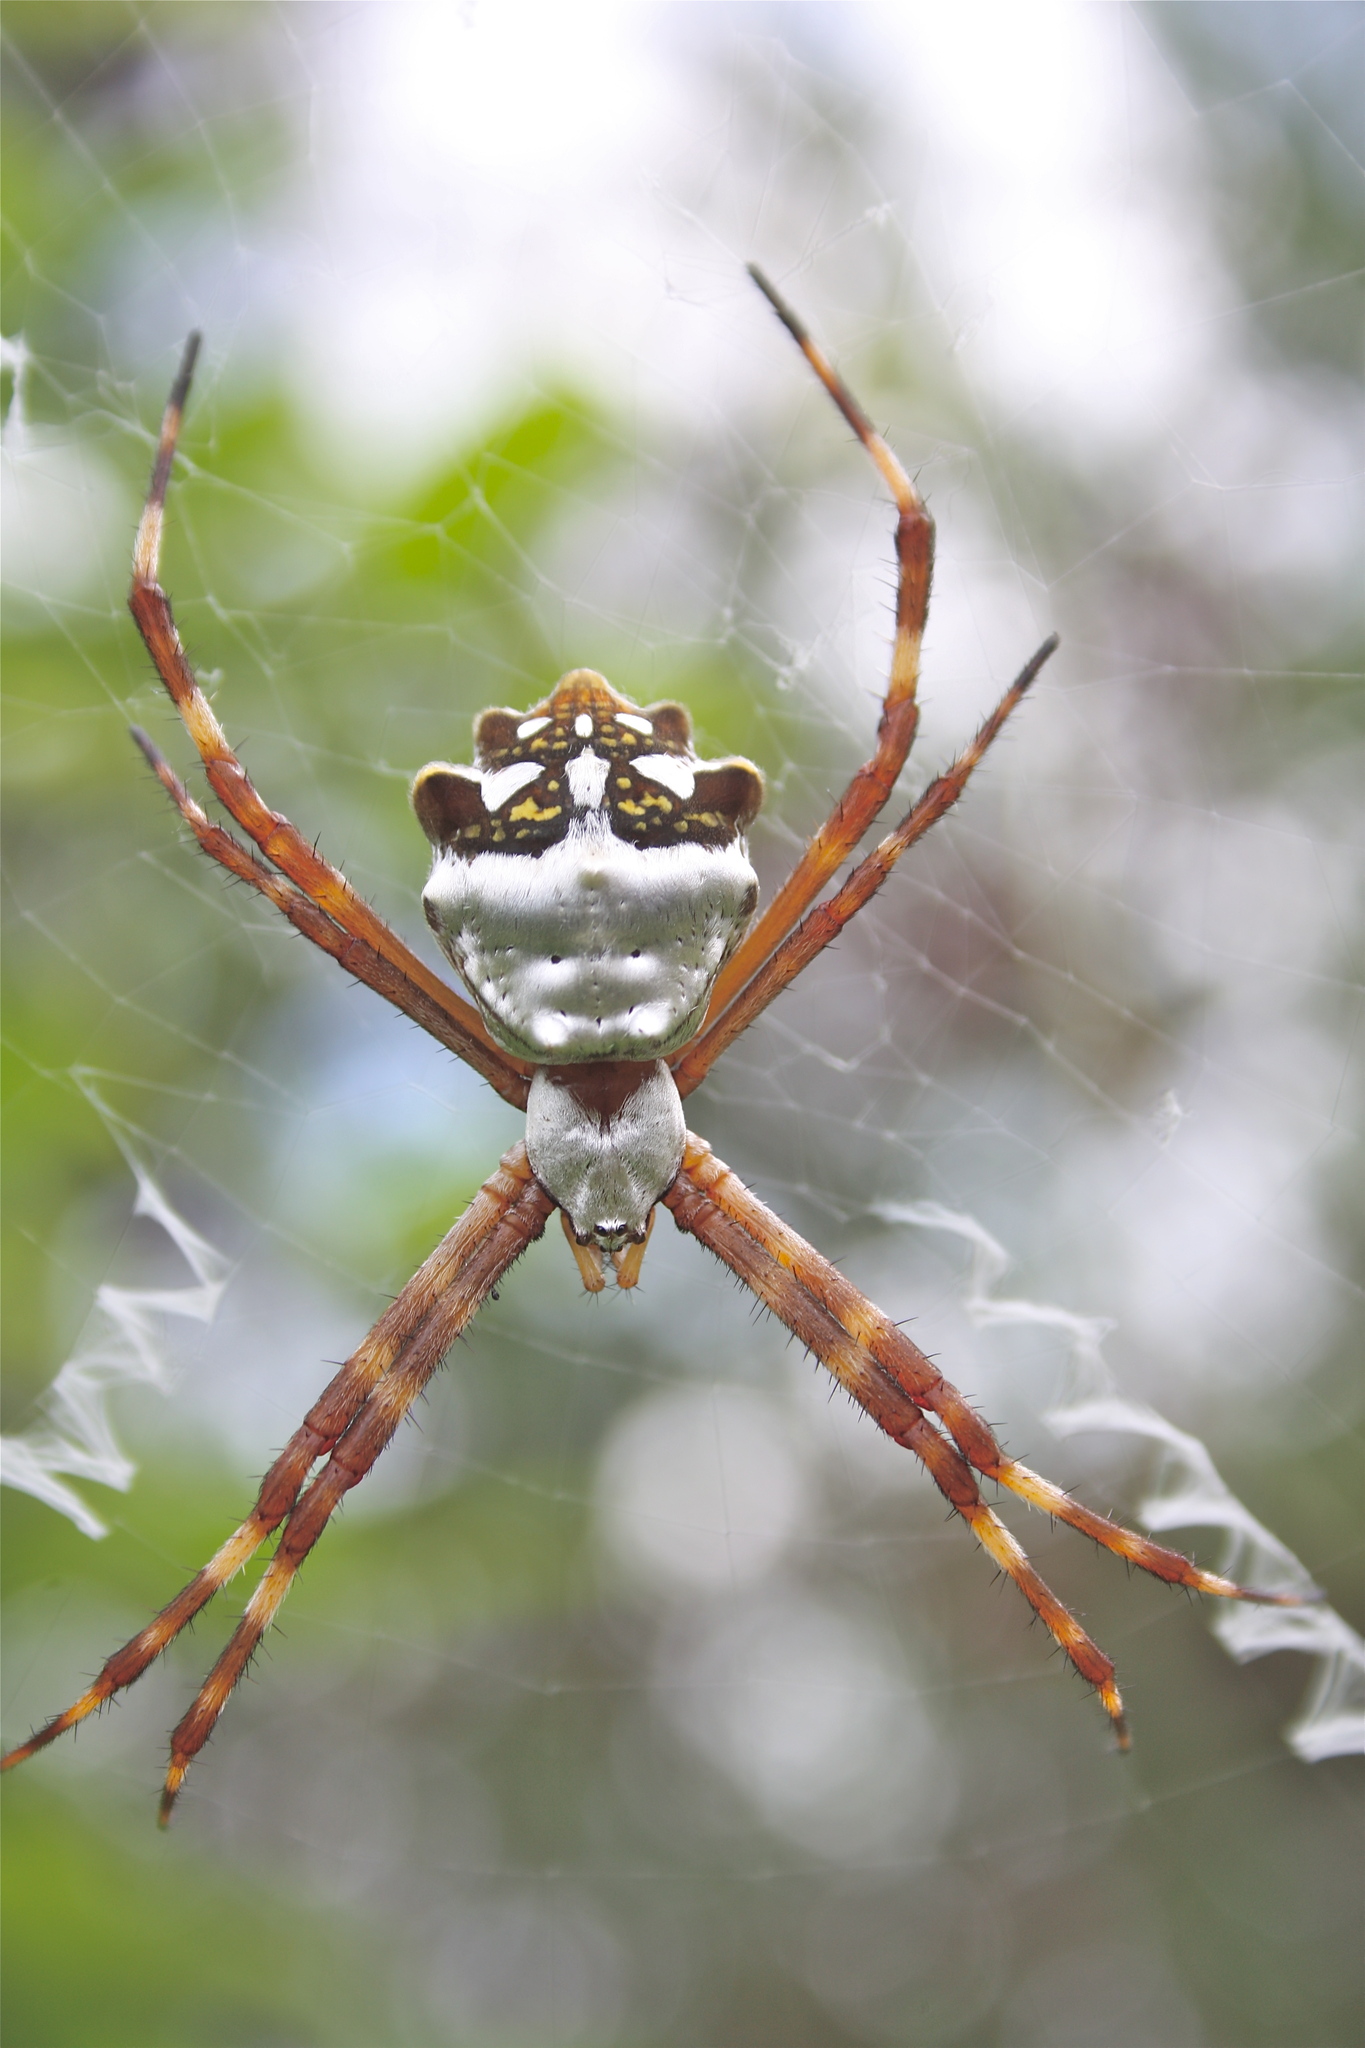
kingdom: Animalia
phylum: Arthropoda
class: Arachnida
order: Araneae
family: Araneidae
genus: Argiope
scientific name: Argiope argentata
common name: Orb weavers
